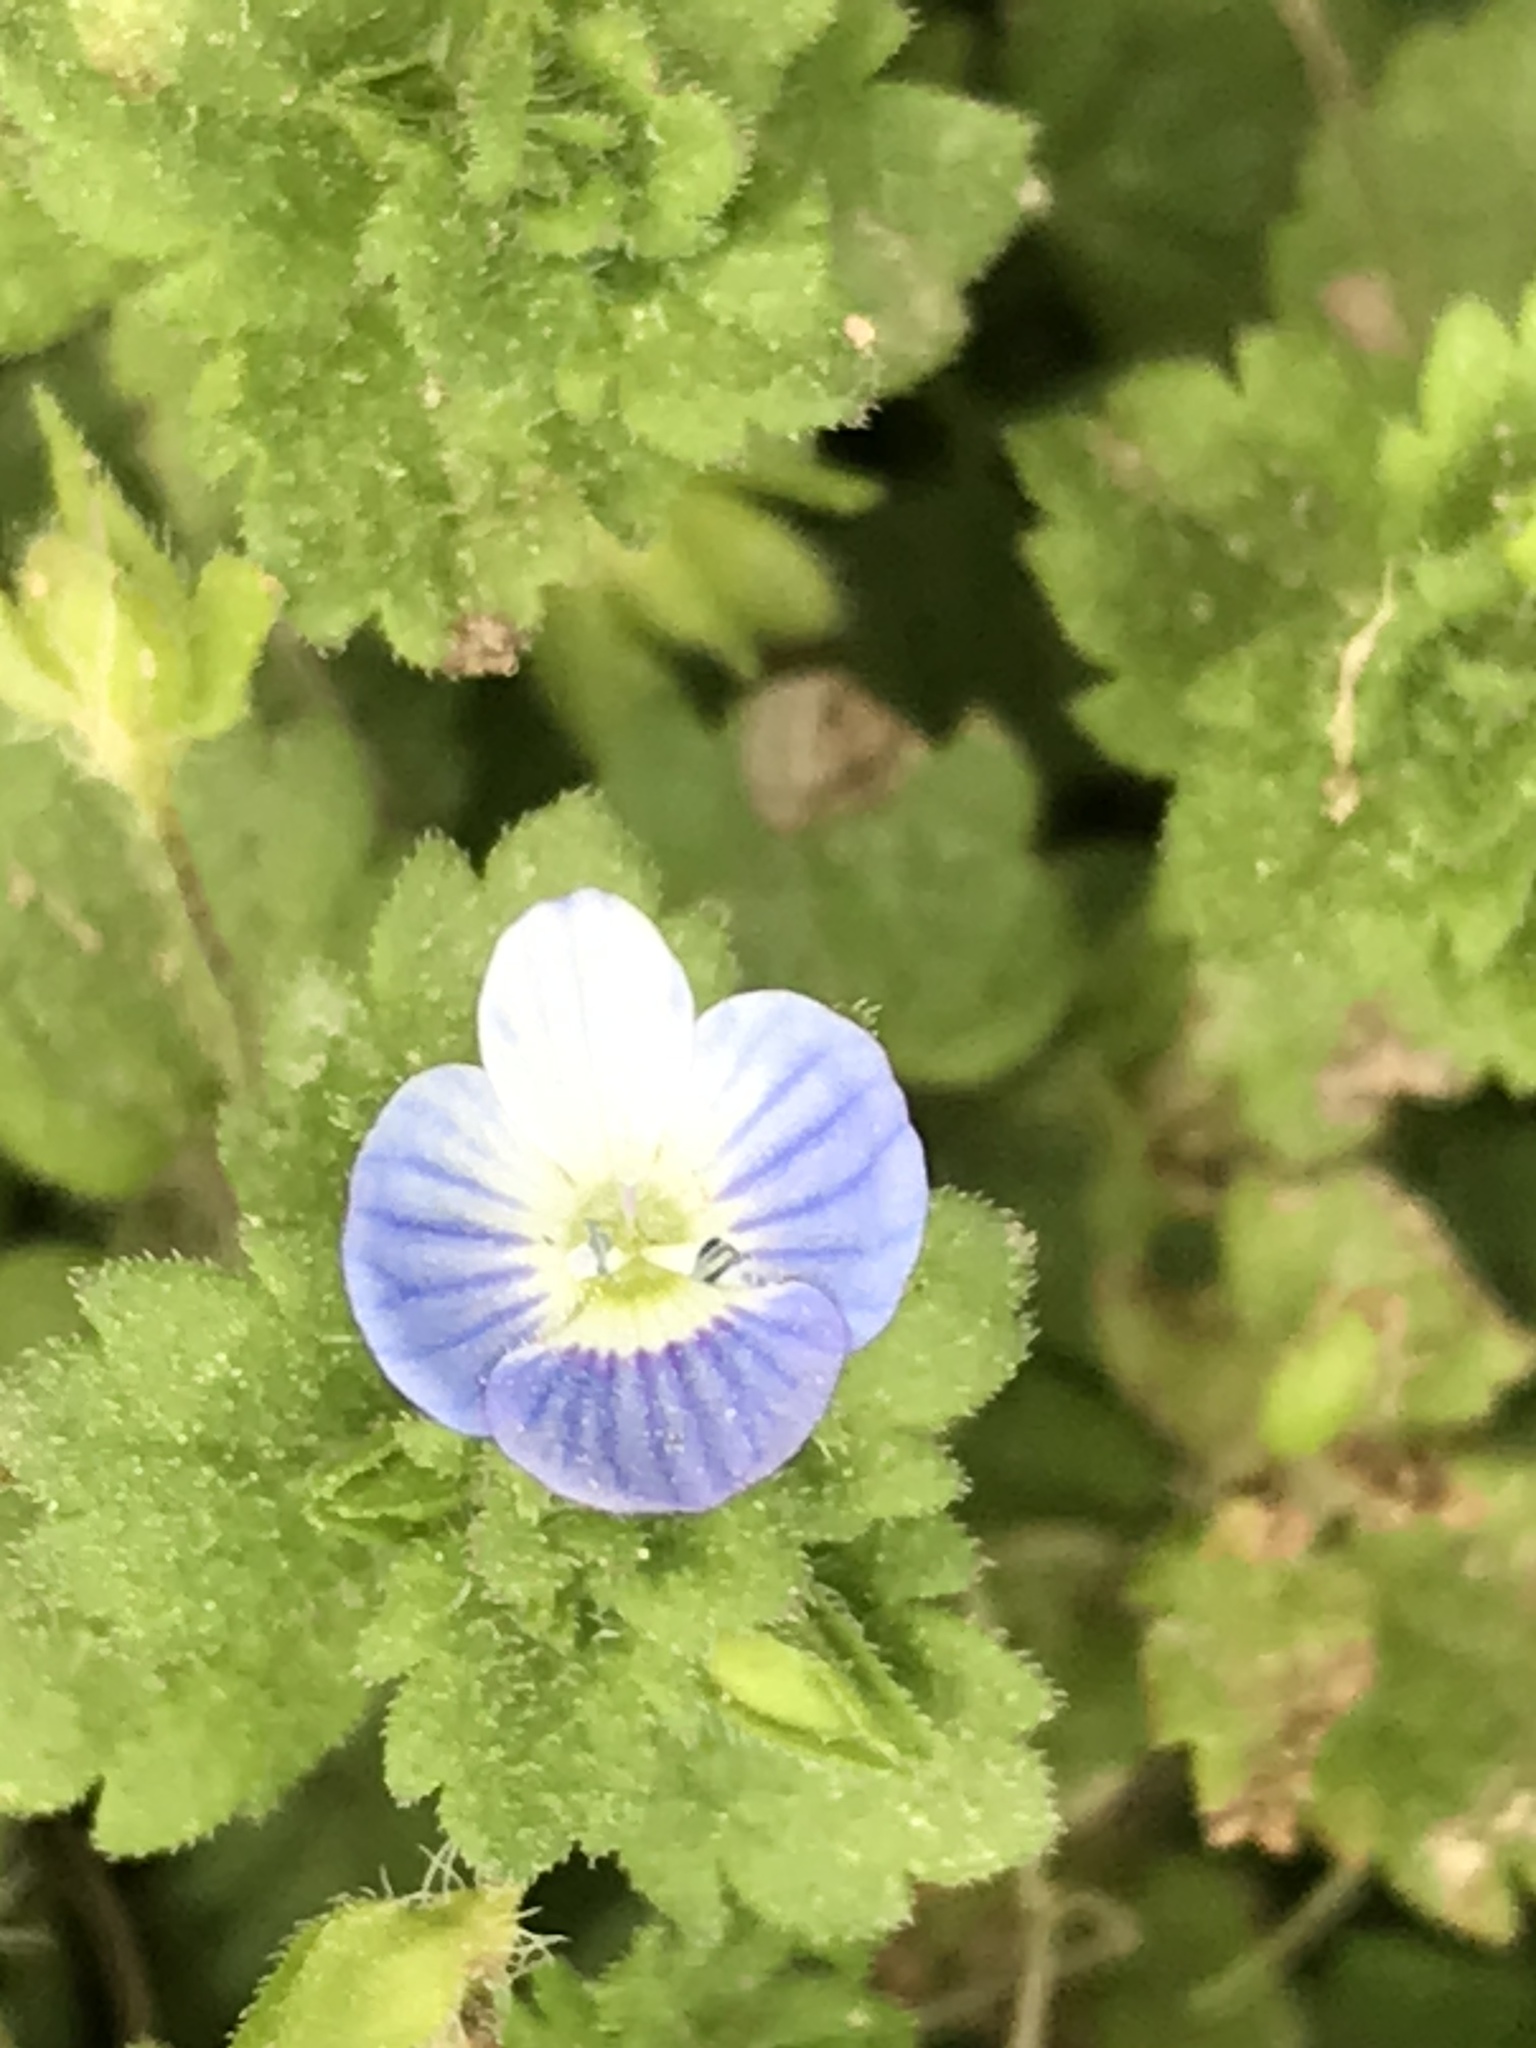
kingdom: Plantae
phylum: Tracheophyta
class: Magnoliopsida
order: Lamiales
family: Plantaginaceae
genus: Veronica
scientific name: Veronica persica
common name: Common field-speedwell
